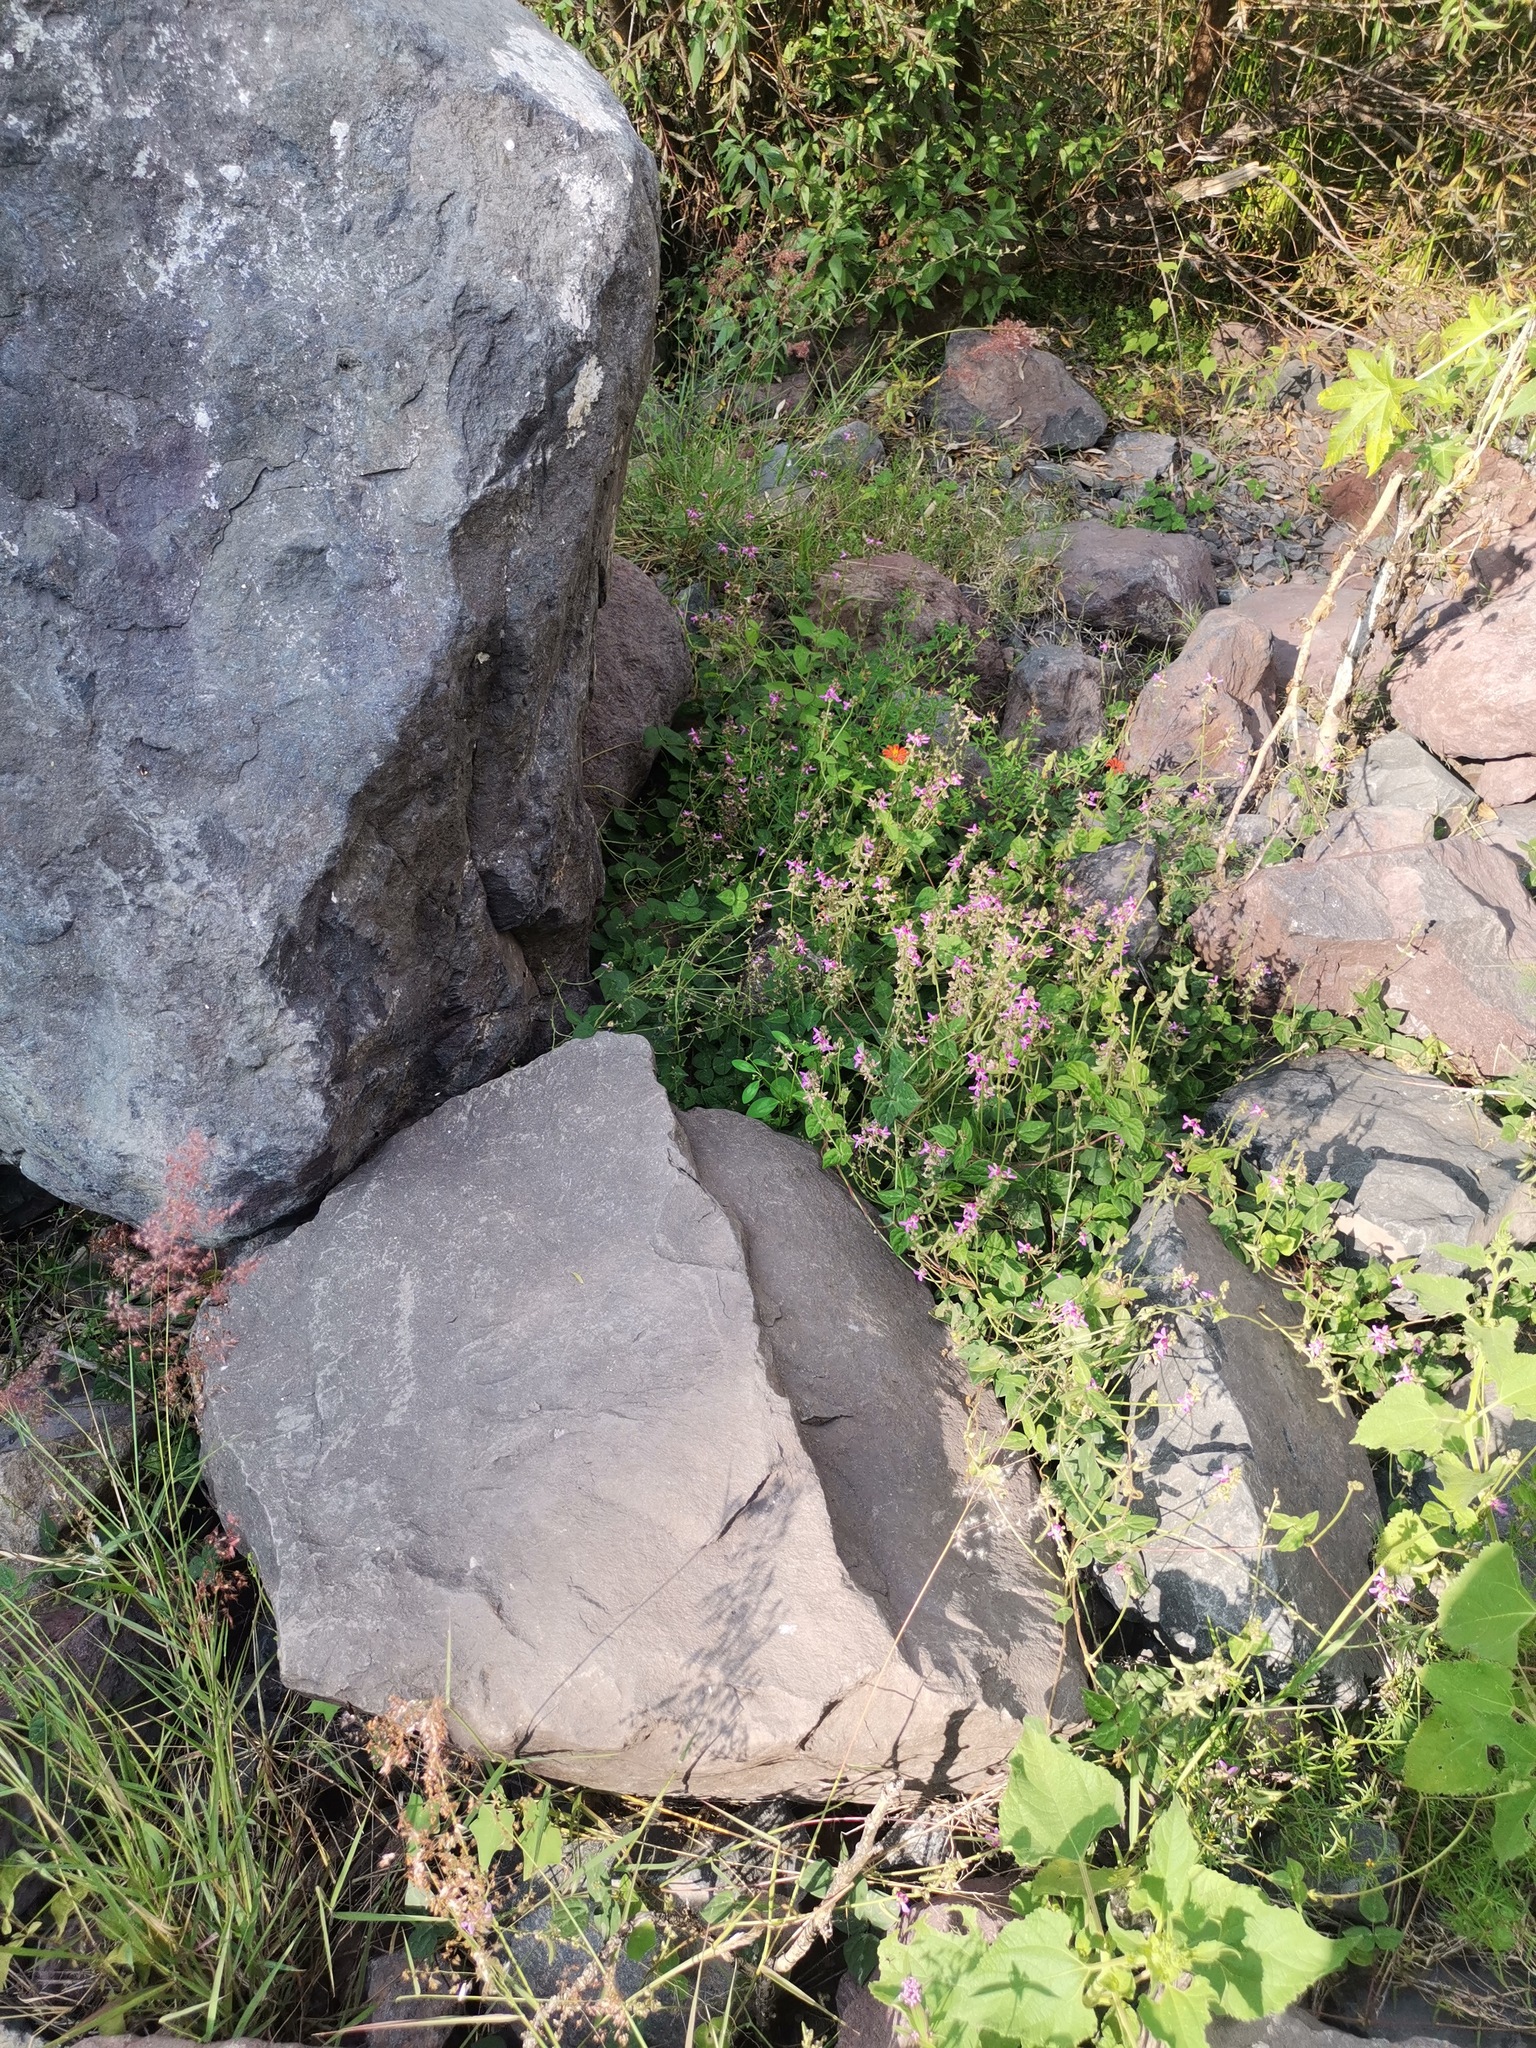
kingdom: Plantae
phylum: Tracheophyta
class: Magnoliopsida
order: Asterales
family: Asteraceae
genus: Zinnia
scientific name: Zinnia peruviana
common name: Peruvian zinnia
